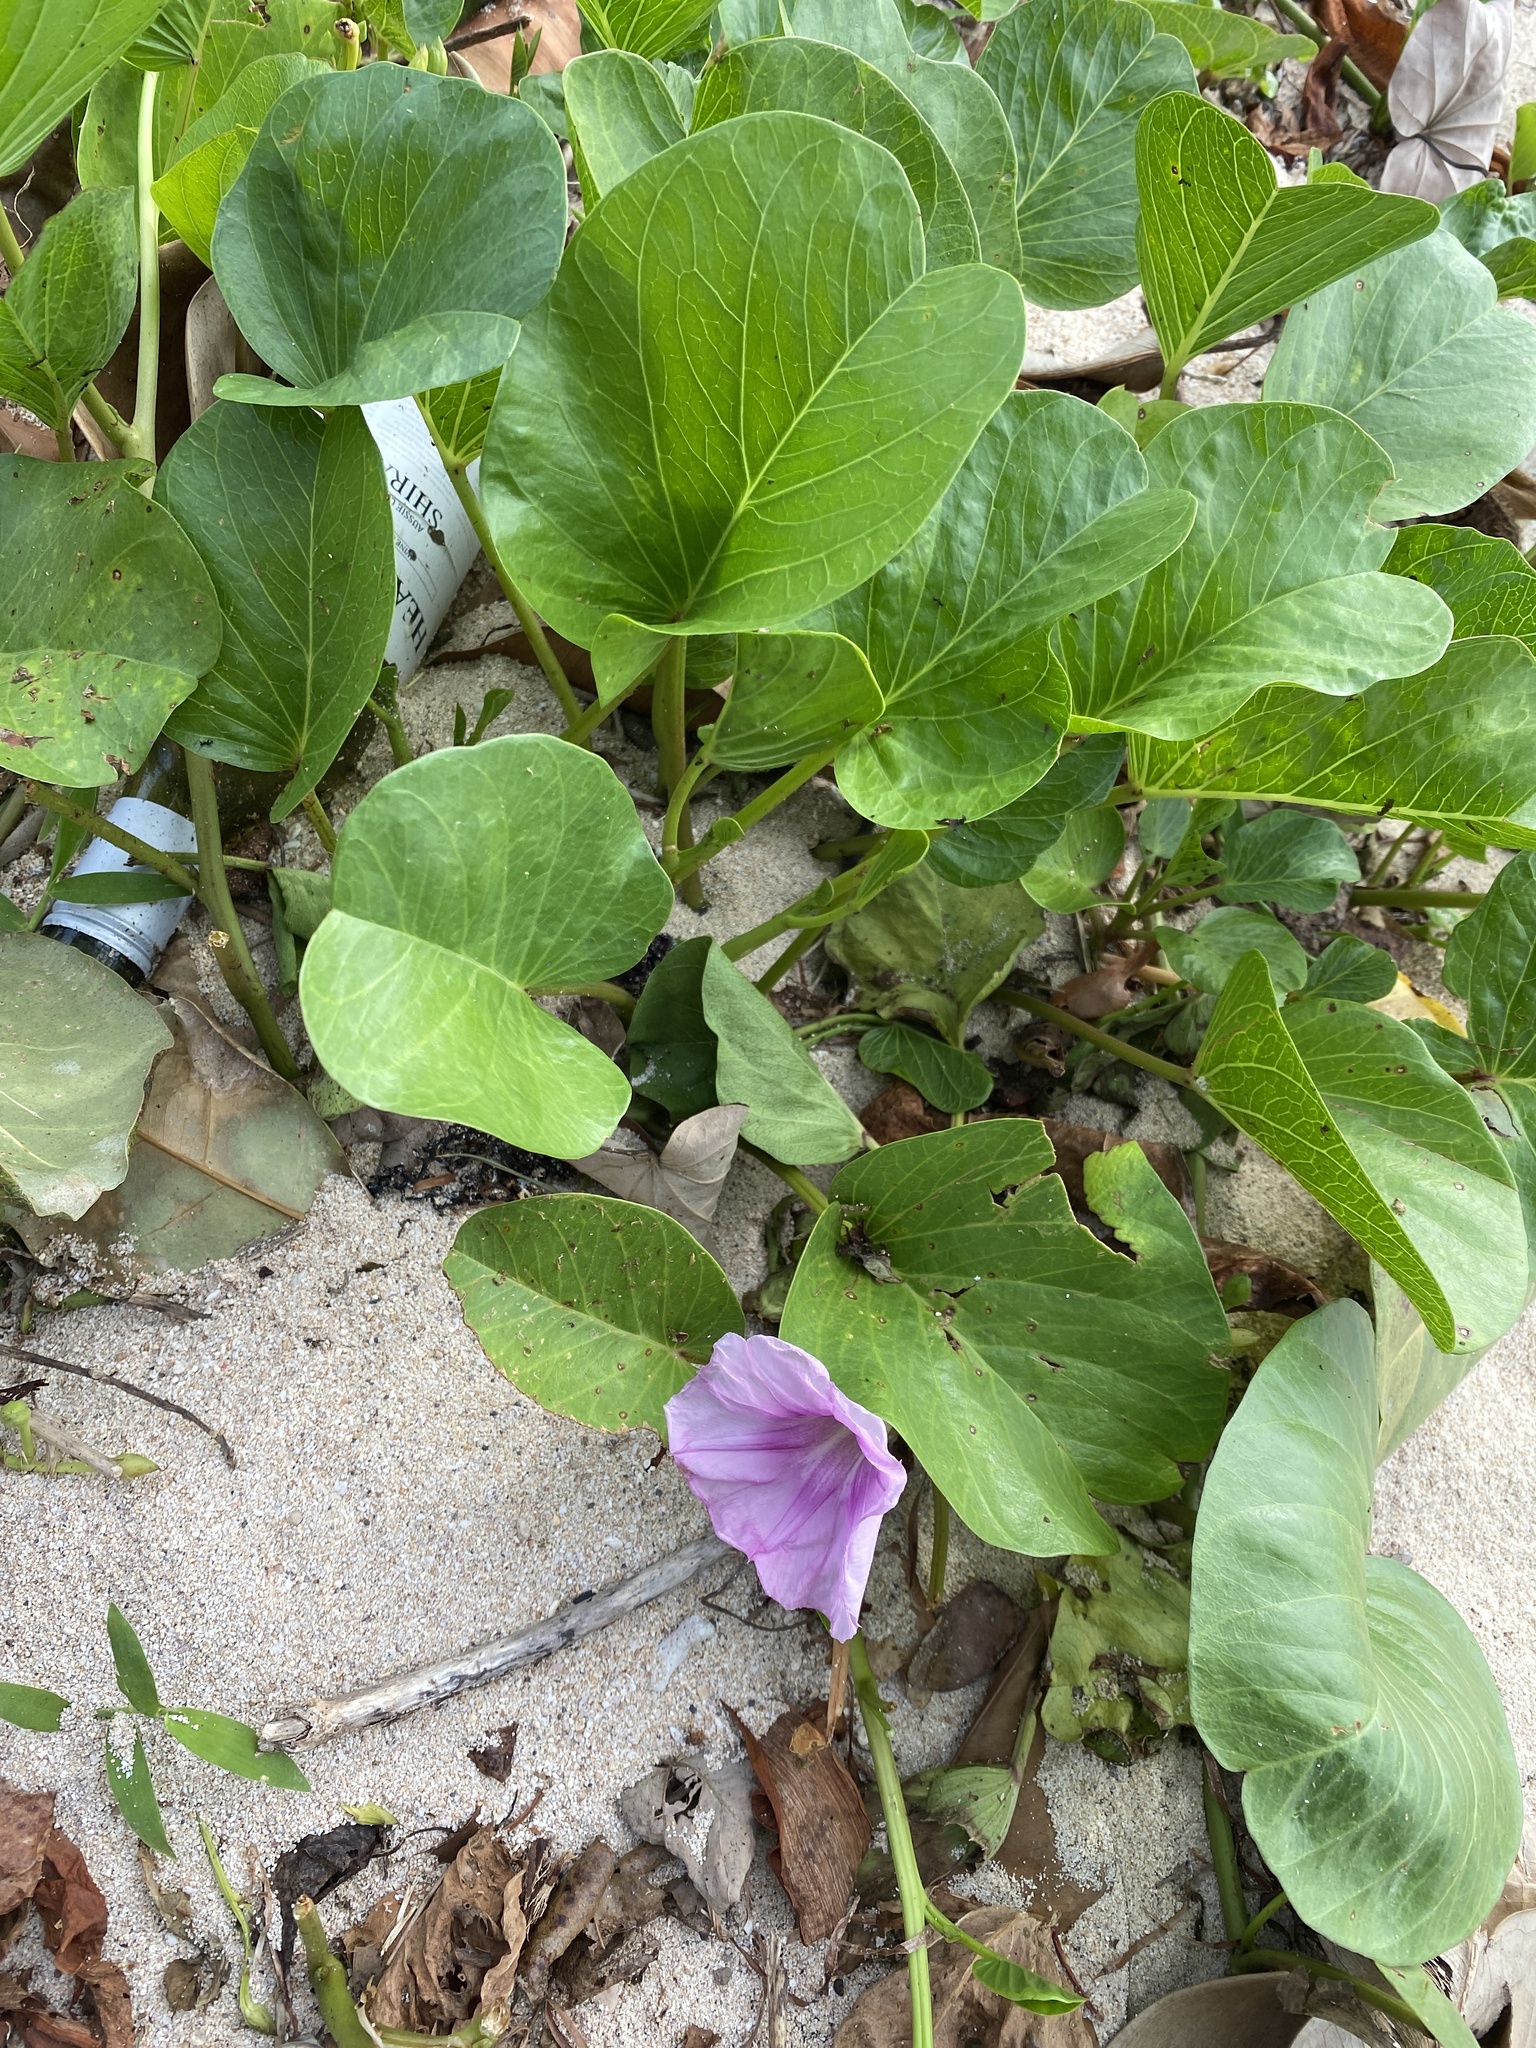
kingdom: Plantae
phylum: Tracheophyta
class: Magnoliopsida
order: Solanales
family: Convolvulaceae
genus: Ipomoea
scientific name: Ipomoea pes-caprae
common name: Beach morning glory
